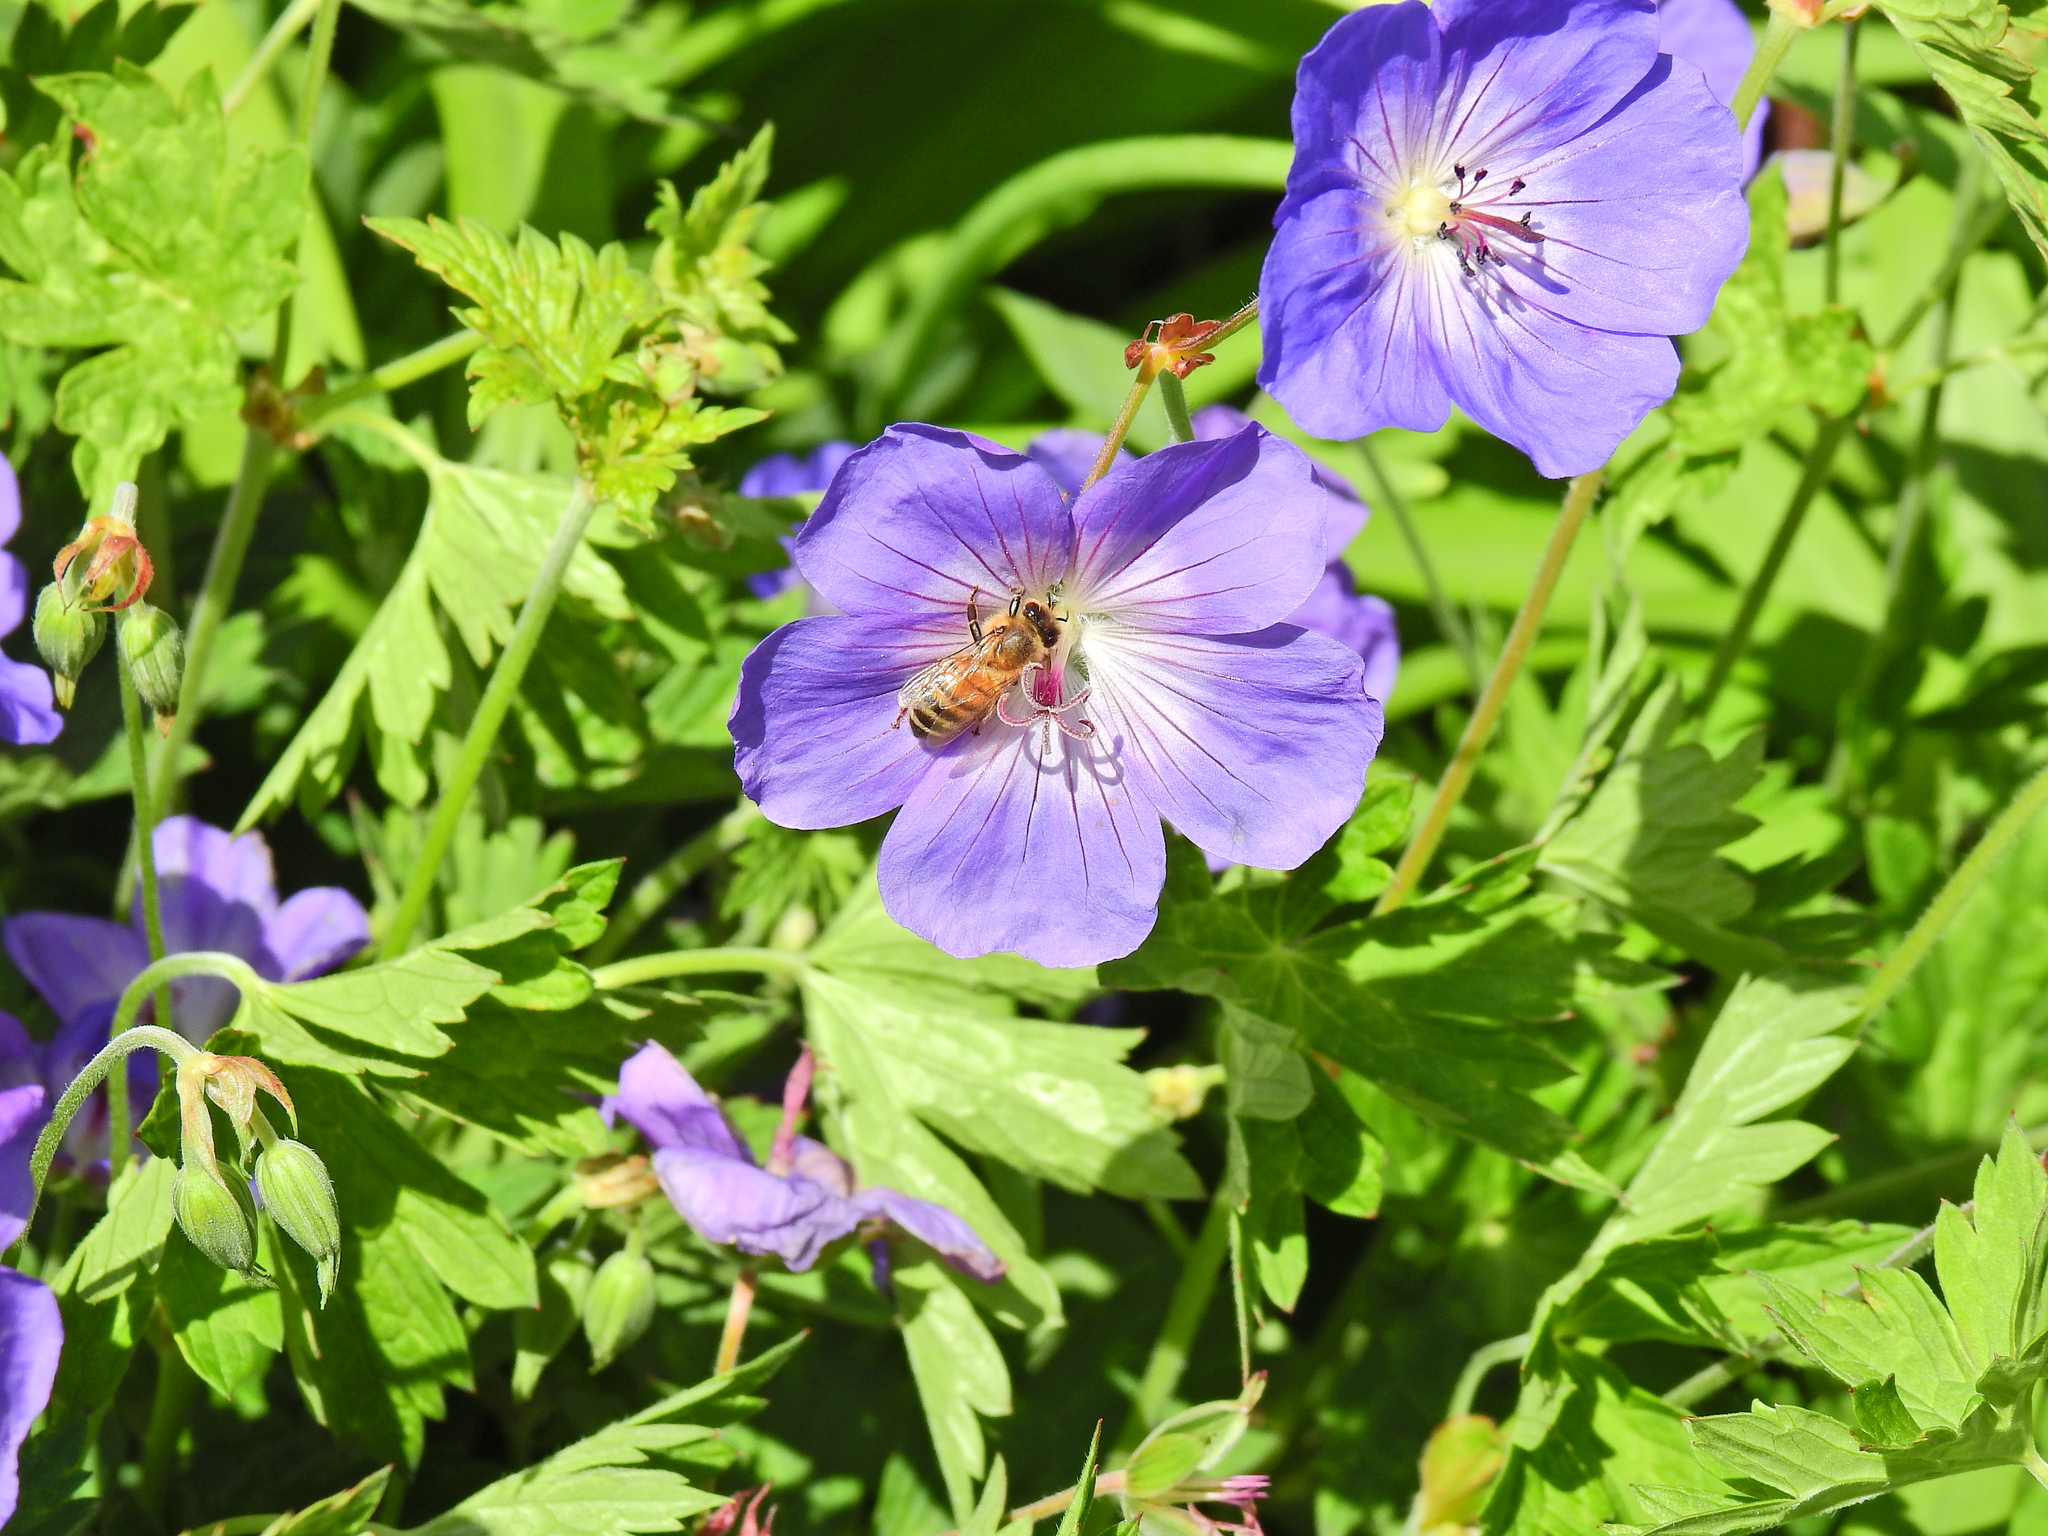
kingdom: Animalia
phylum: Arthropoda
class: Insecta
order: Hymenoptera
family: Apidae
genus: Apis
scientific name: Apis mellifera
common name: Honey bee
